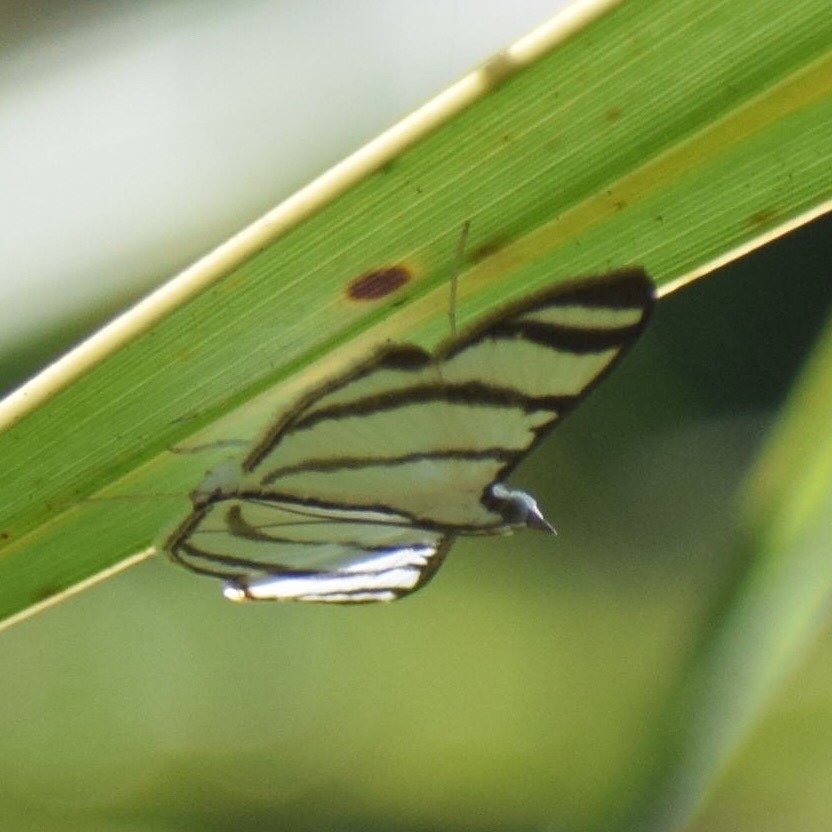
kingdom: Animalia
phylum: Arthropoda
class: Insecta
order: Lepidoptera
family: Crambidae
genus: Zebronia
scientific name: Zebronia phenice
